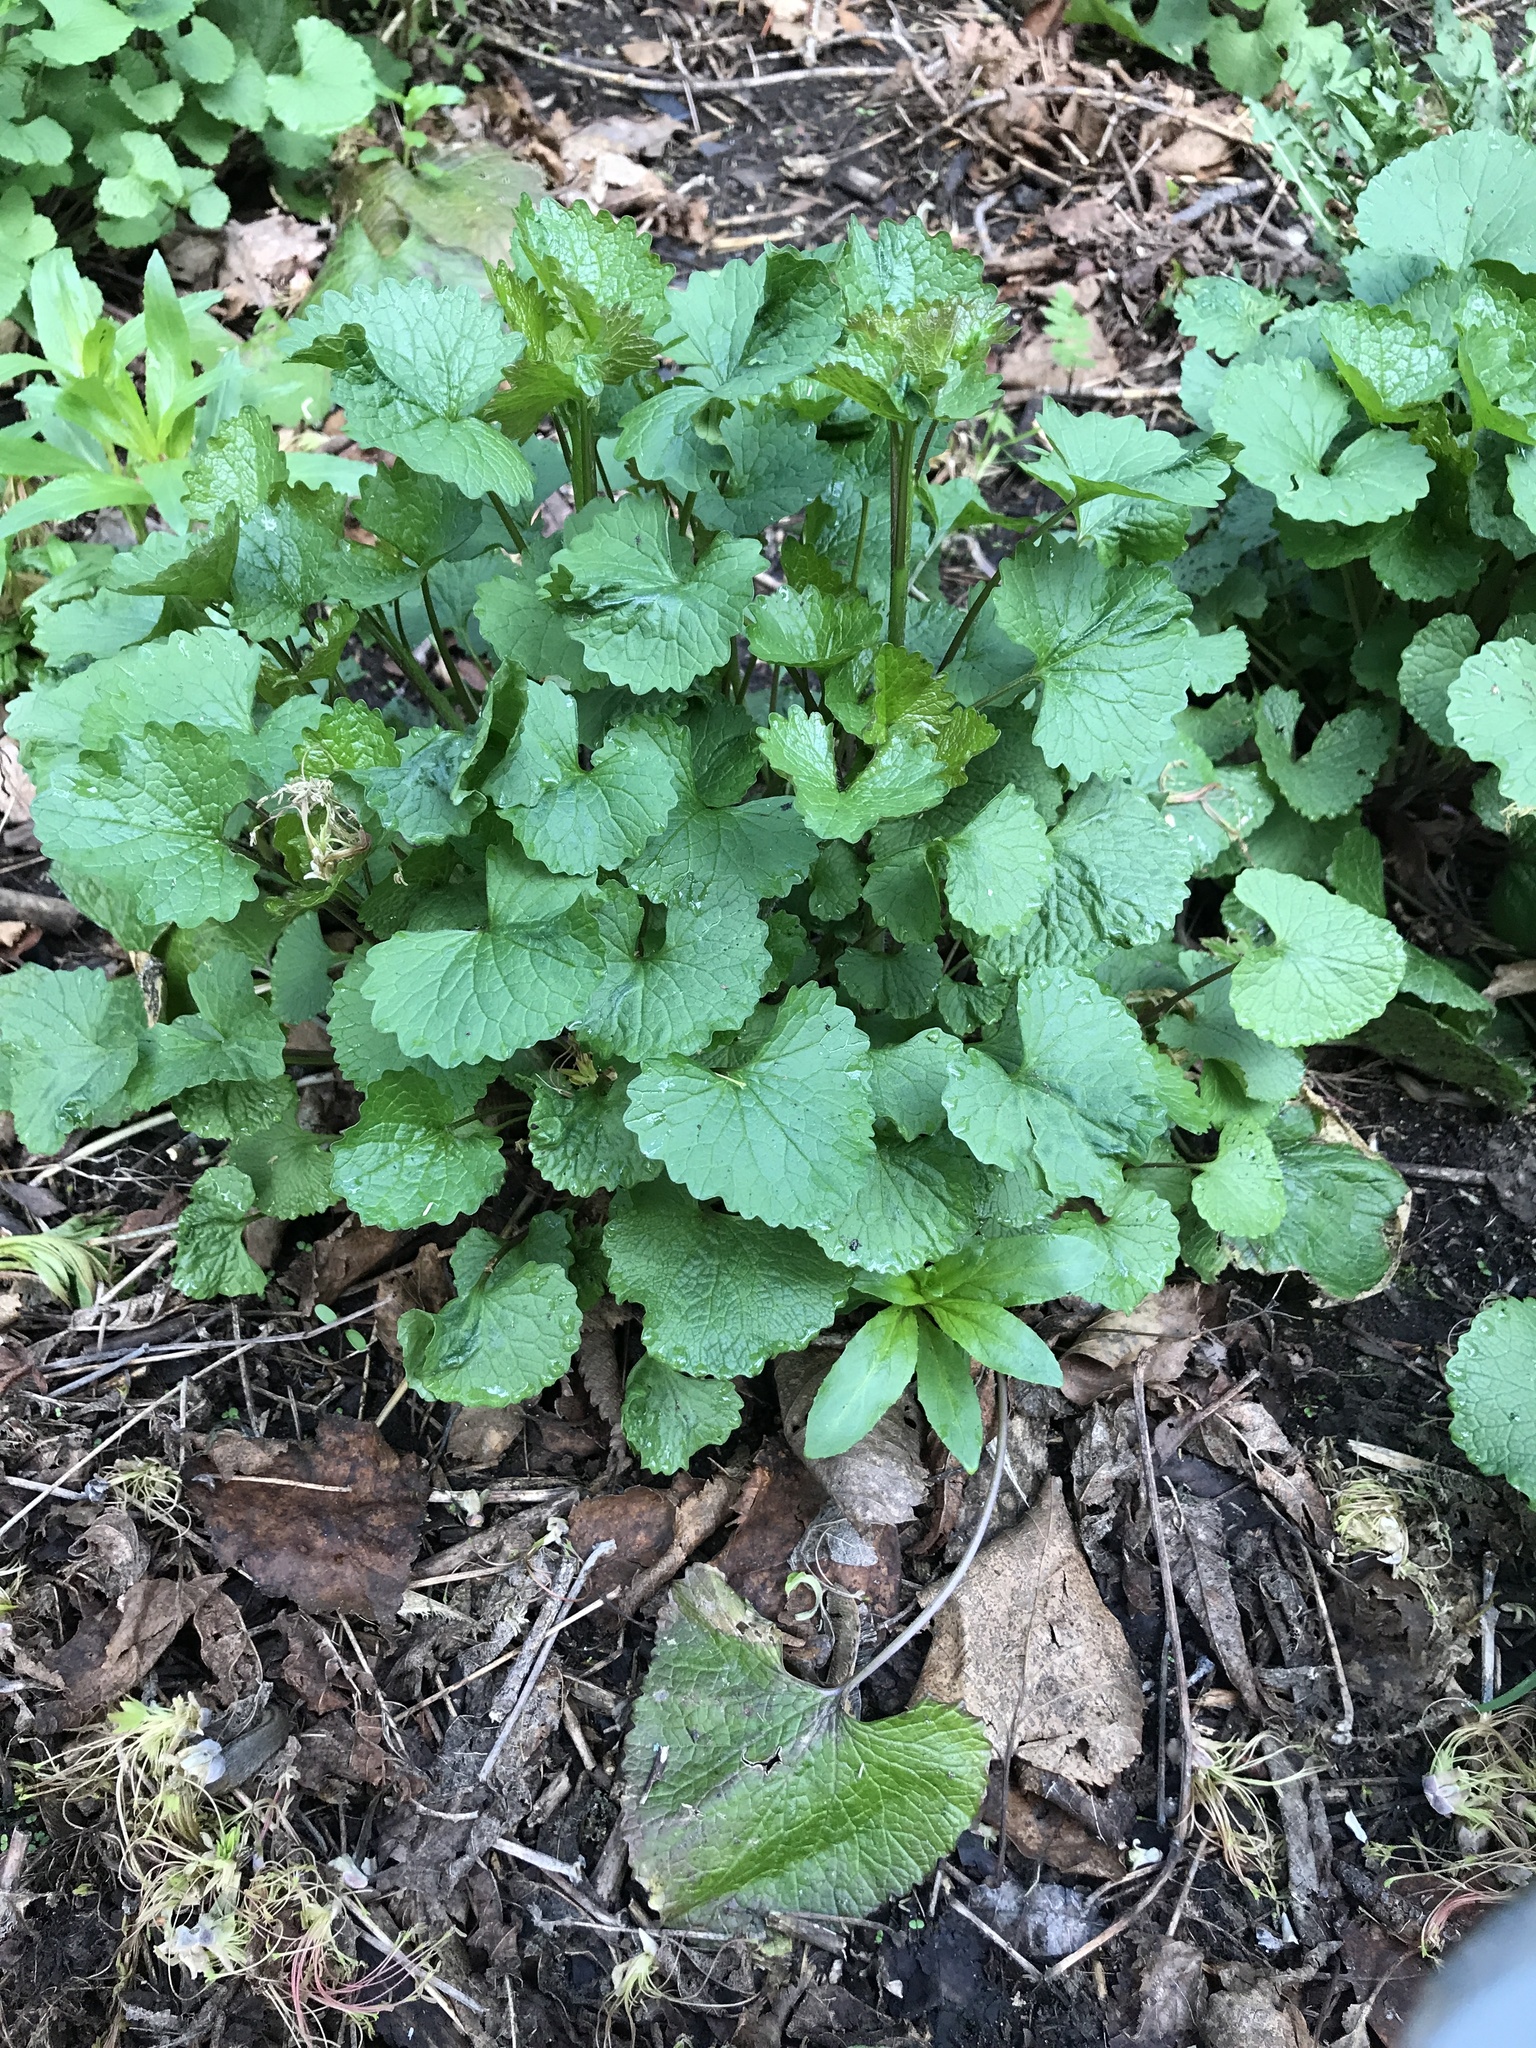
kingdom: Plantae
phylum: Tracheophyta
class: Magnoliopsida
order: Brassicales
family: Brassicaceae
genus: Alliaria
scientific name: Alliaria petiolata
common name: Garlic mustard
